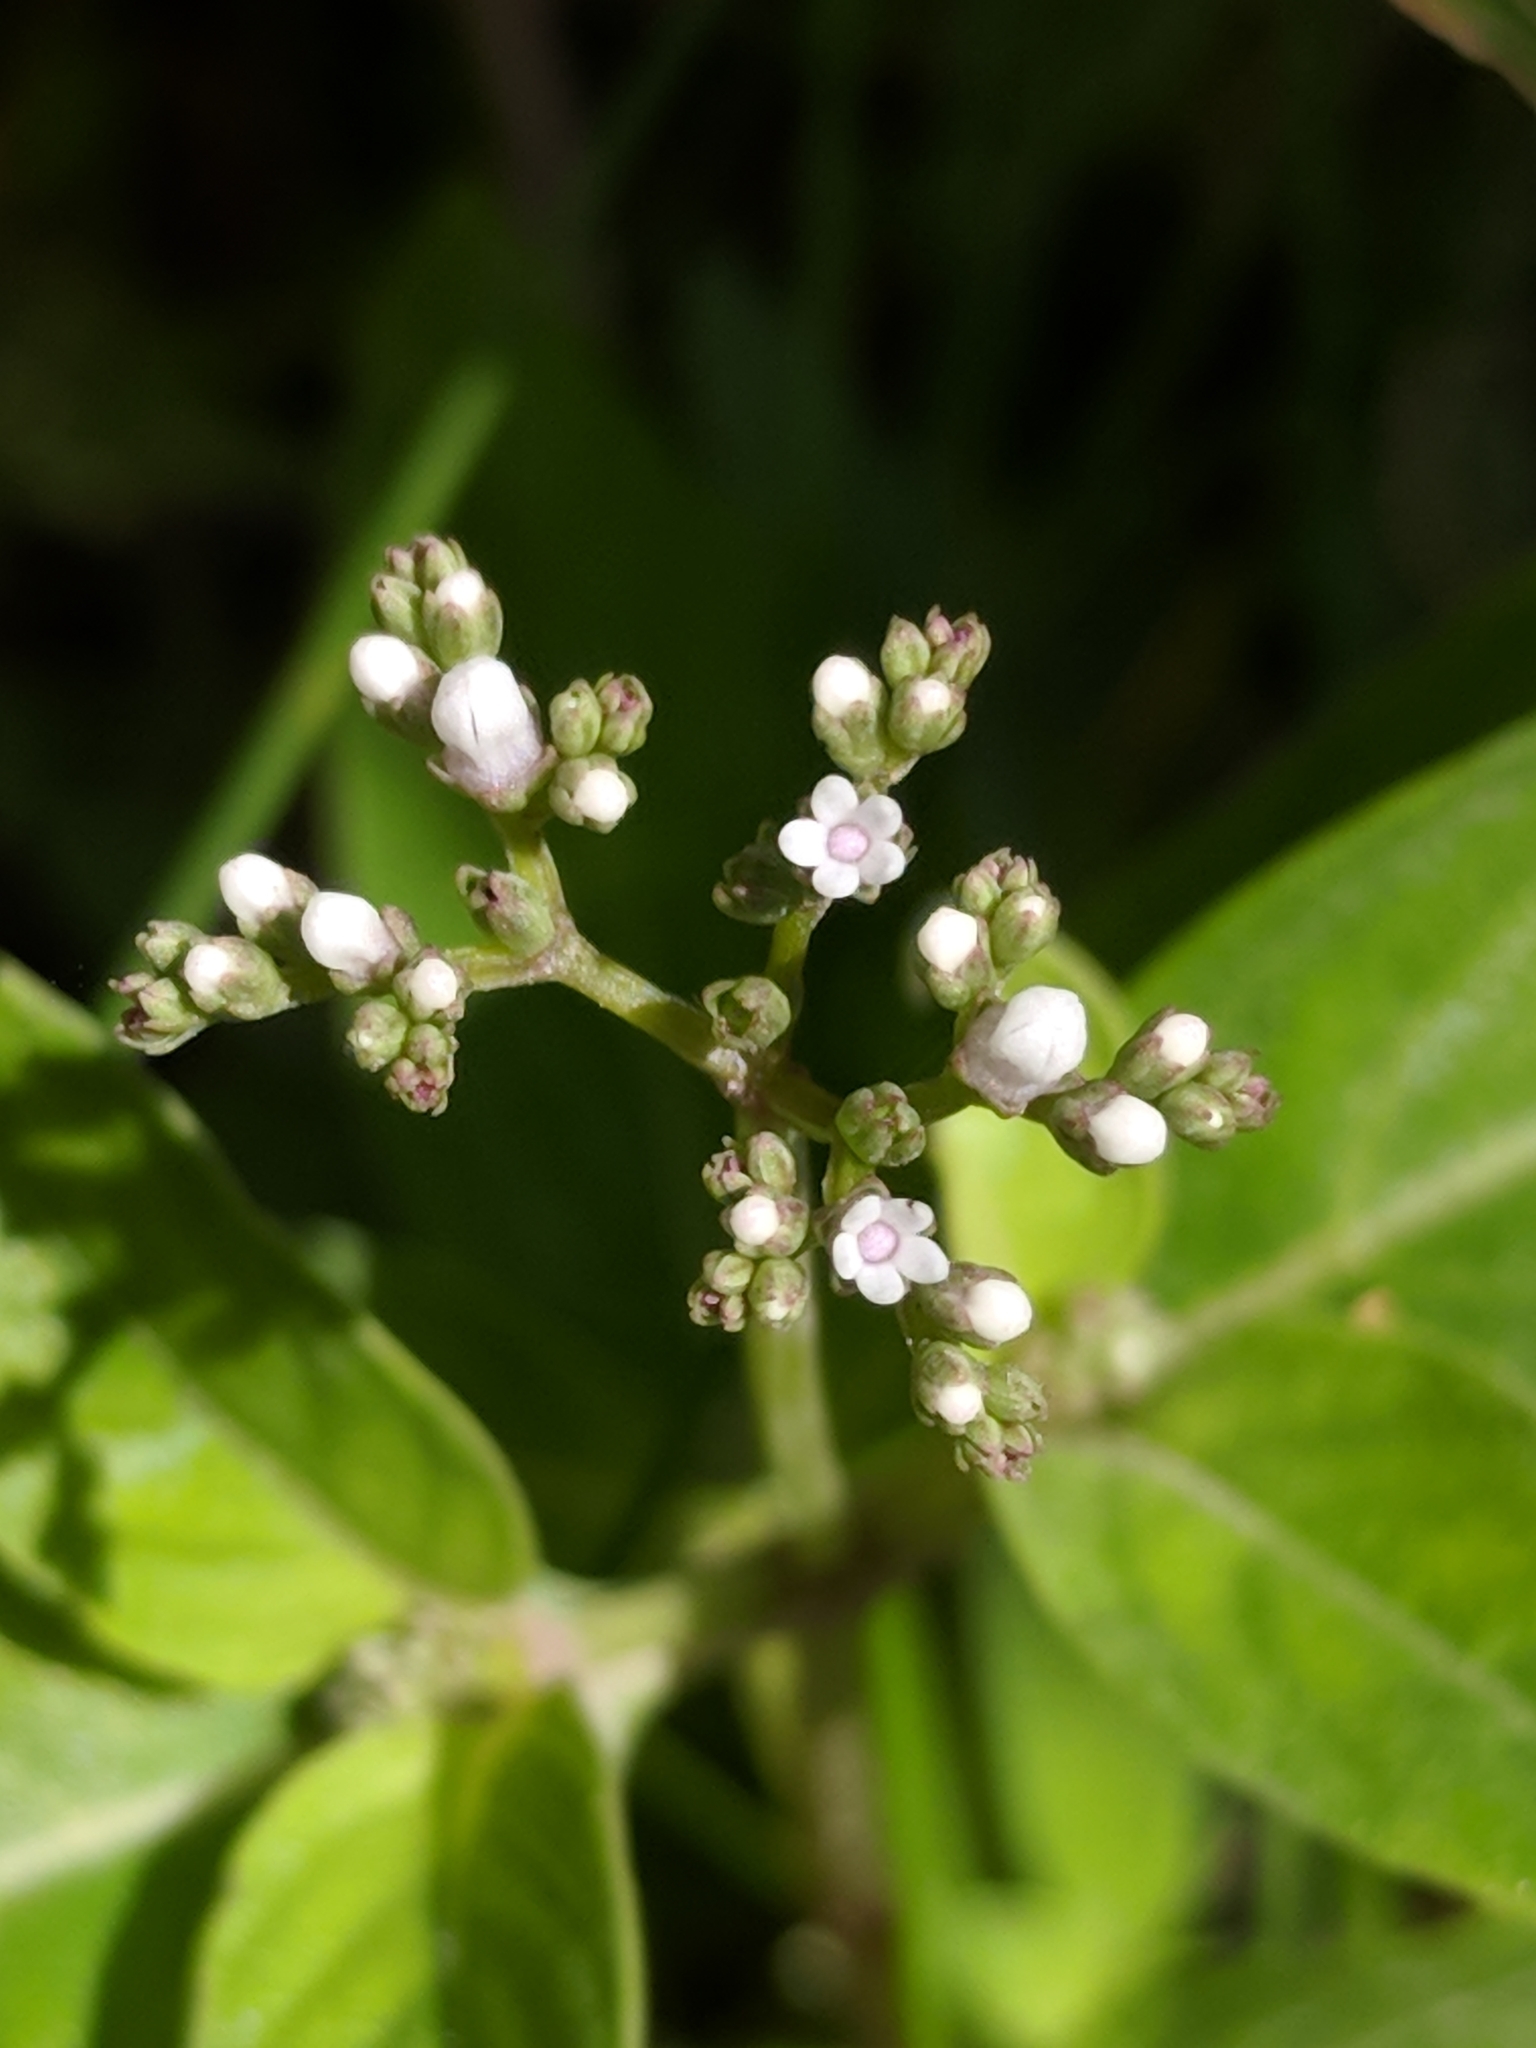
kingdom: Plantae
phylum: Tracheophyta
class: Magnoliopsida
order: Gentianales
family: Loganiaceae
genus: Mitreola
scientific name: Mitreola petiolata
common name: Lax hornpod
